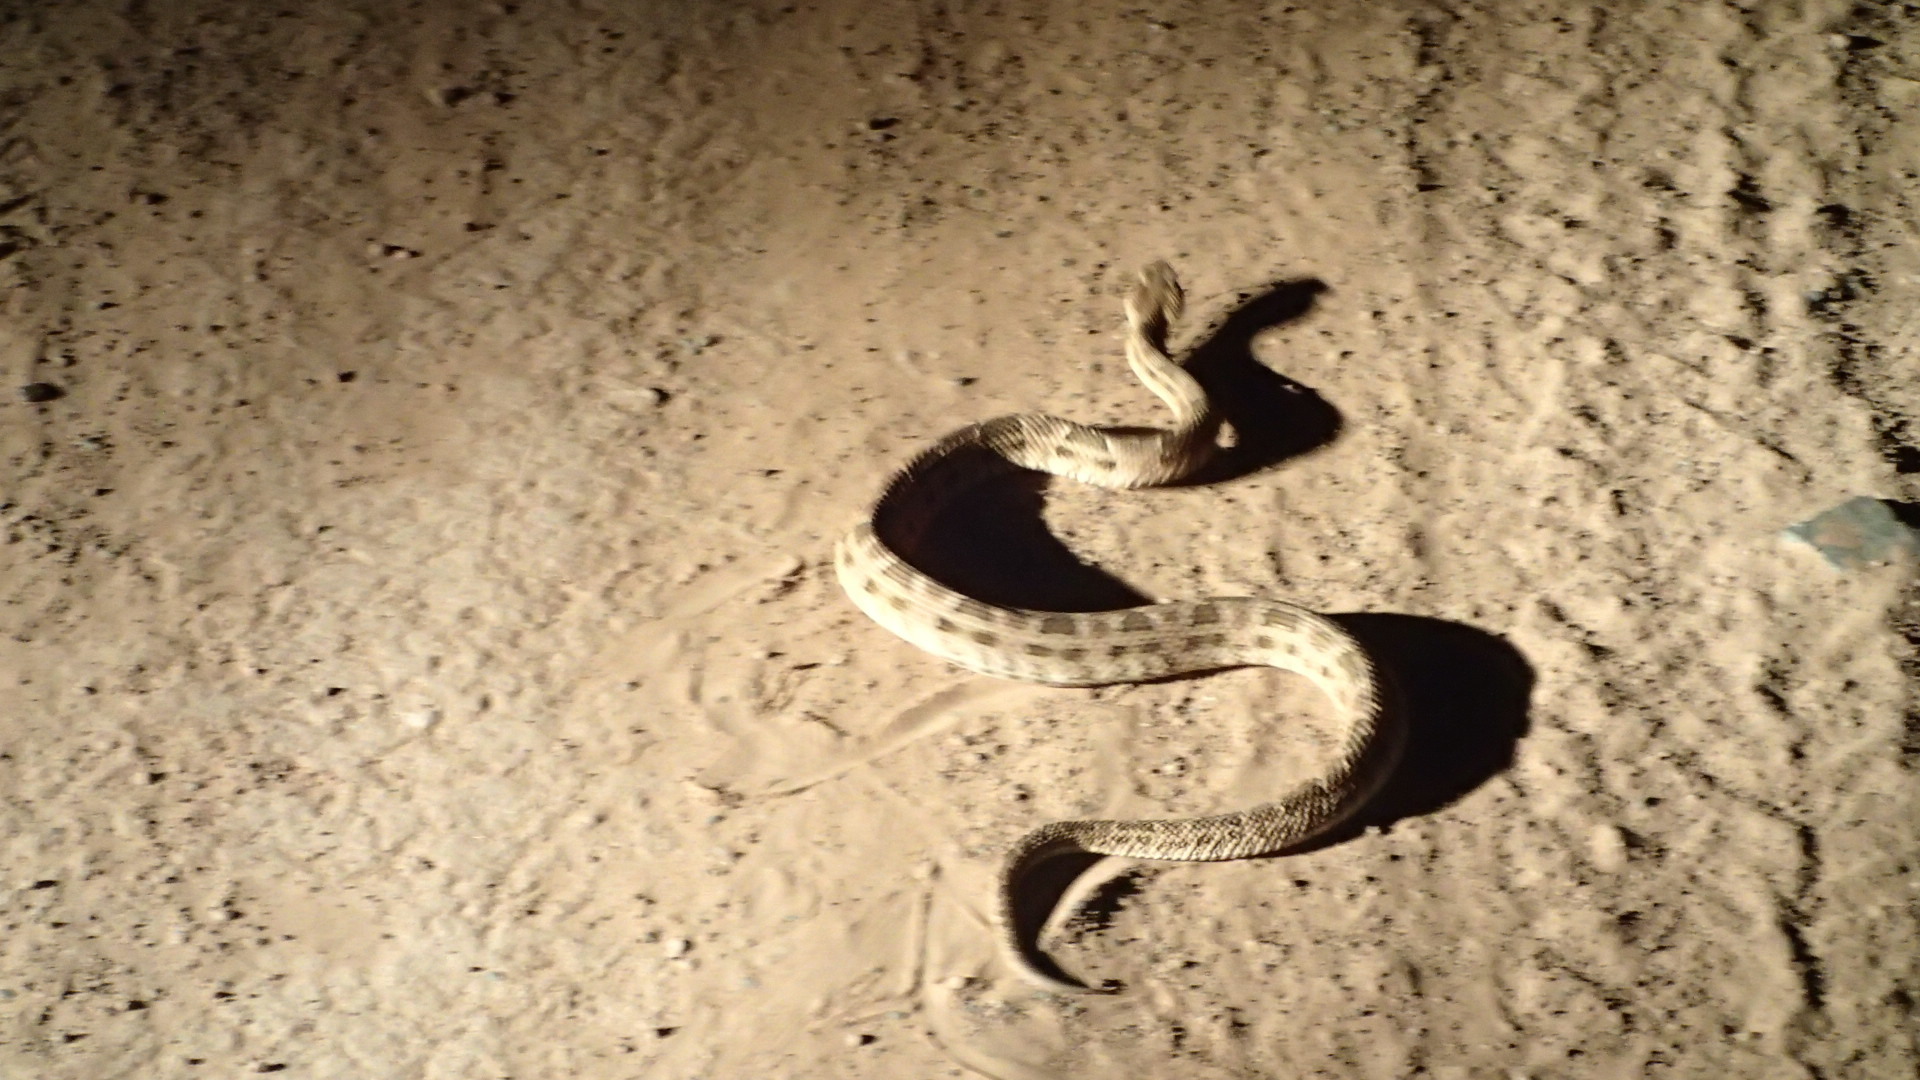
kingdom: Animalia
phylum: Chordata
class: Squamata
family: Viperidae
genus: Bothrops
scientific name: Bothrops diporus
